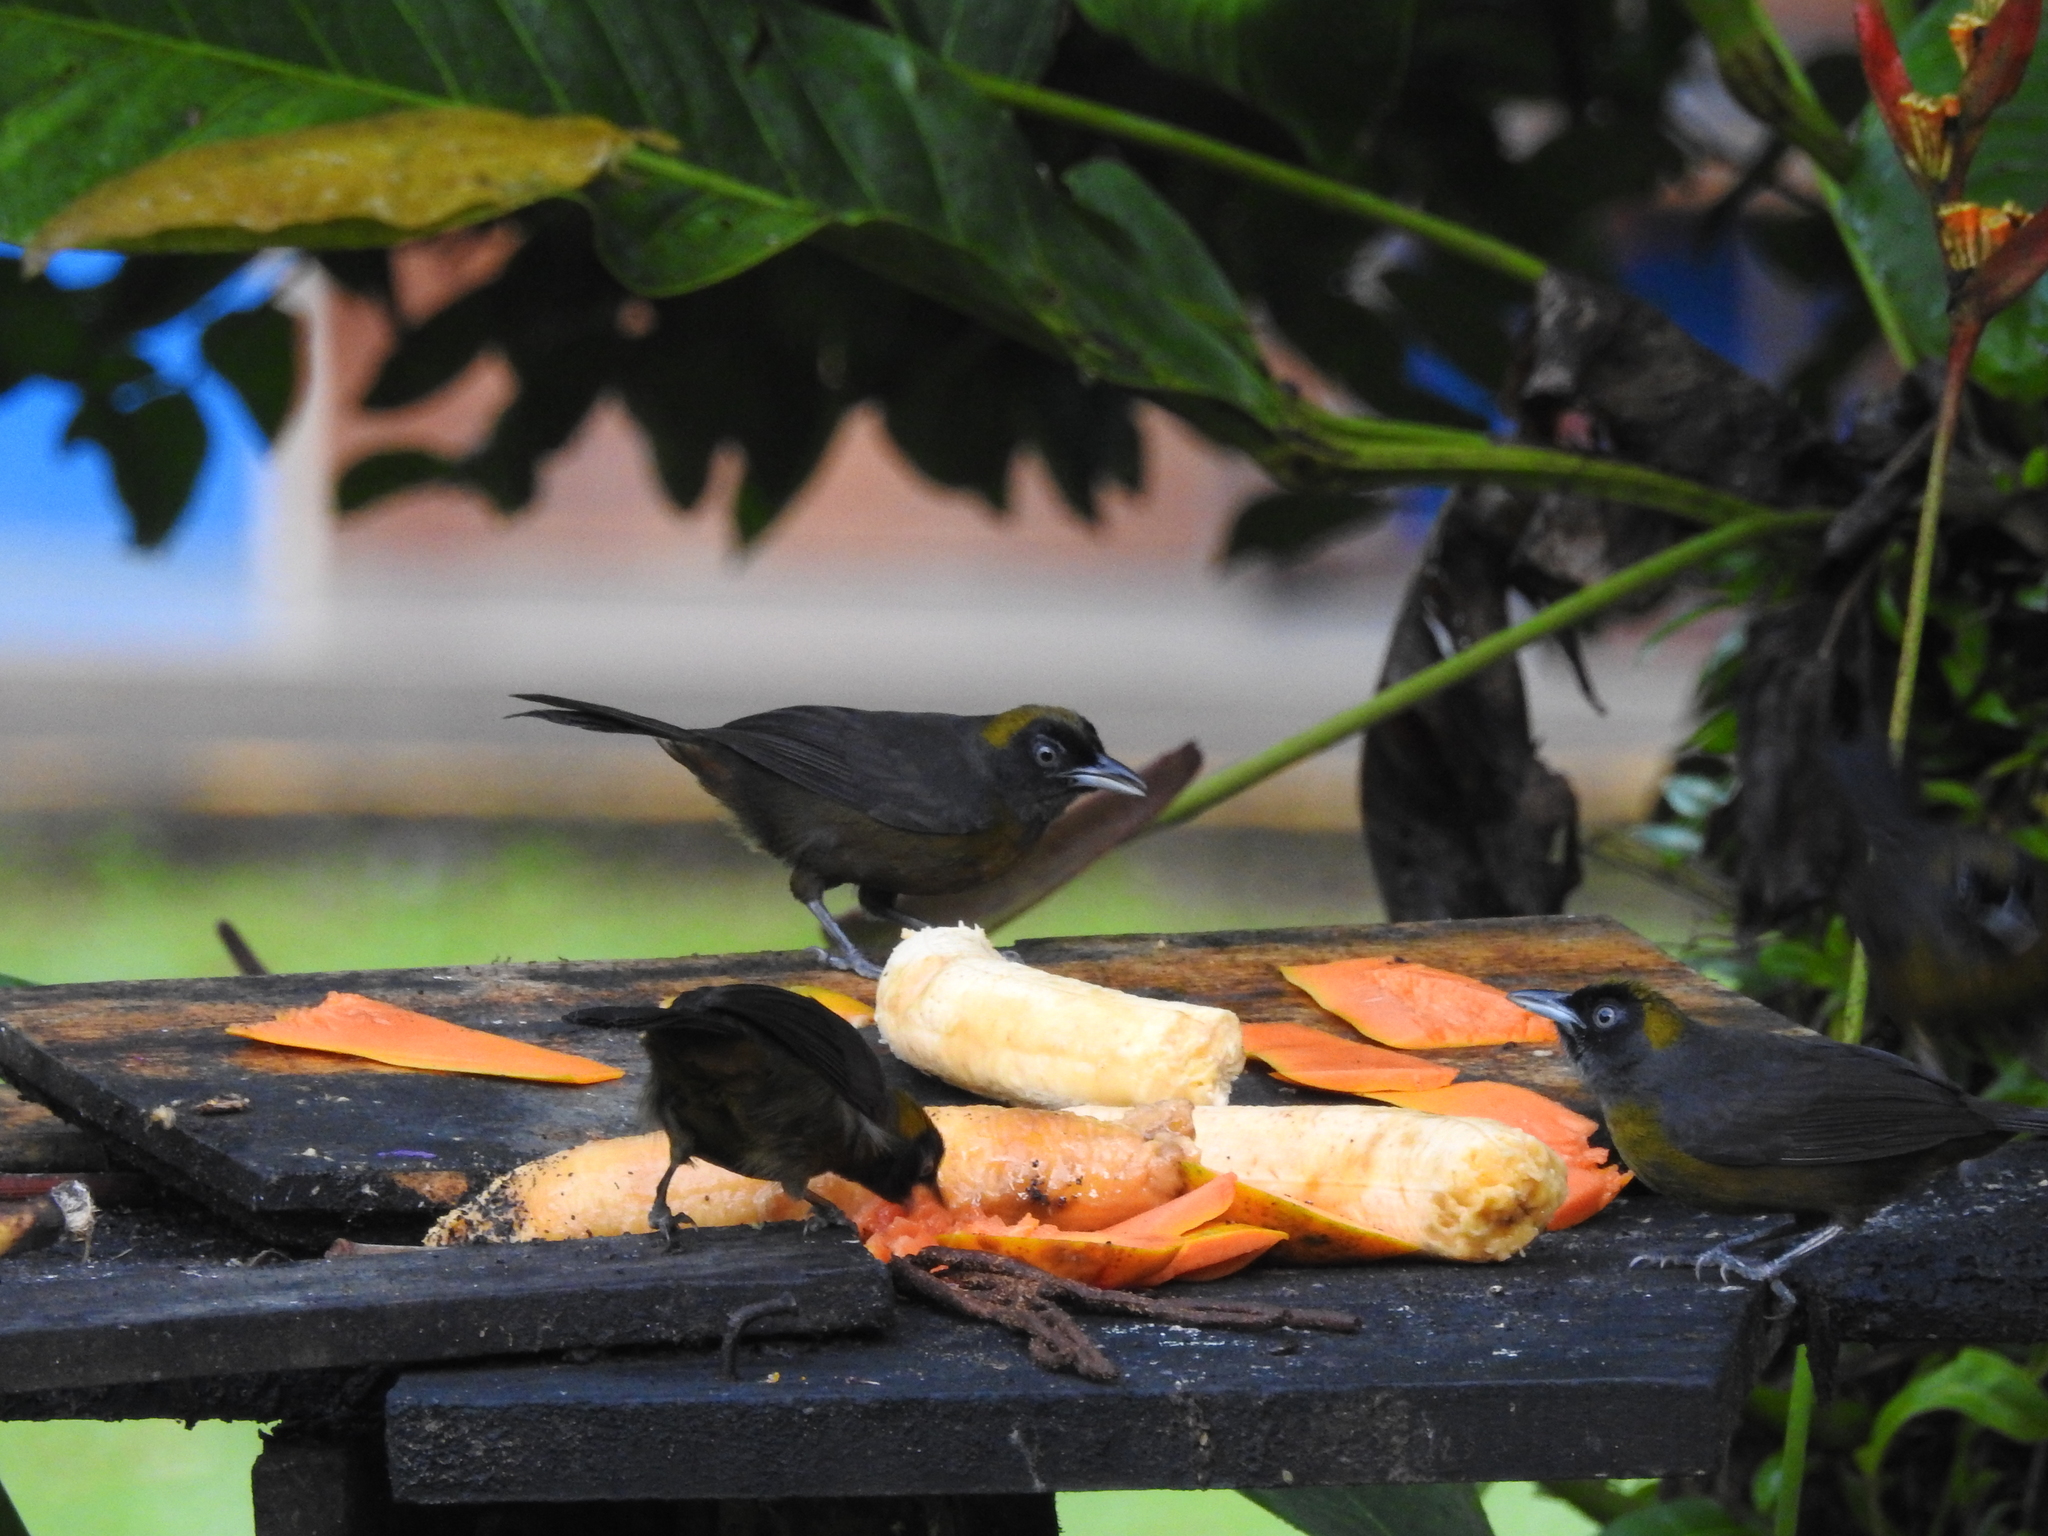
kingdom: Animalia
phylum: Chordata
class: Aves
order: Passeriformes
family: Mitrospingidae
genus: Mitrospingus
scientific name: Mitrospingus cassinii
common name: Dusky-faced tanager
